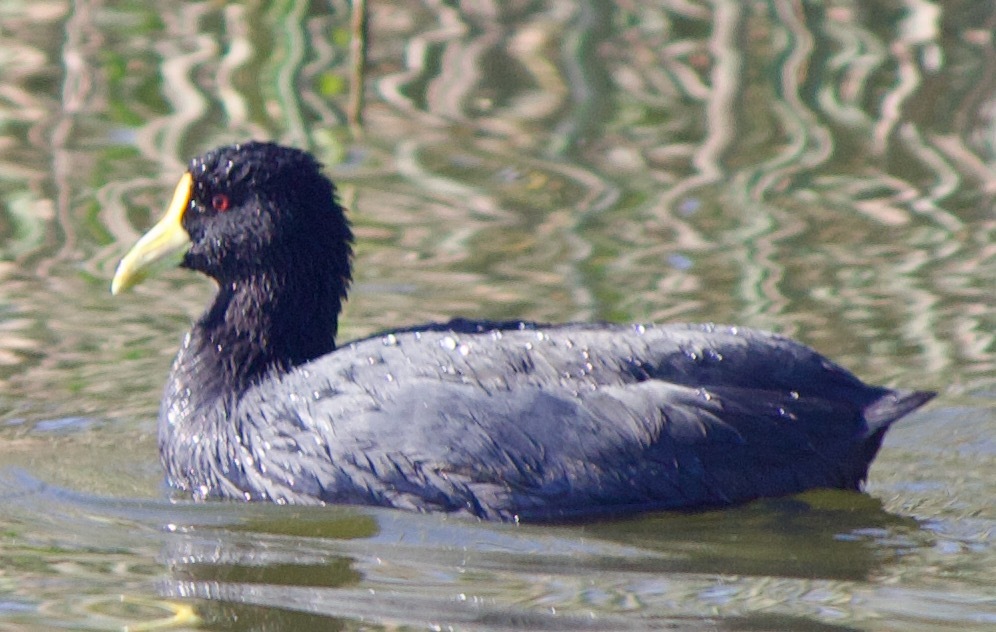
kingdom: Animalia
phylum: Chordata
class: Aves
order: Gruiformes
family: Rallidae
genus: Fulica
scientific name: Fulica leucoptera
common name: White-winged coot
